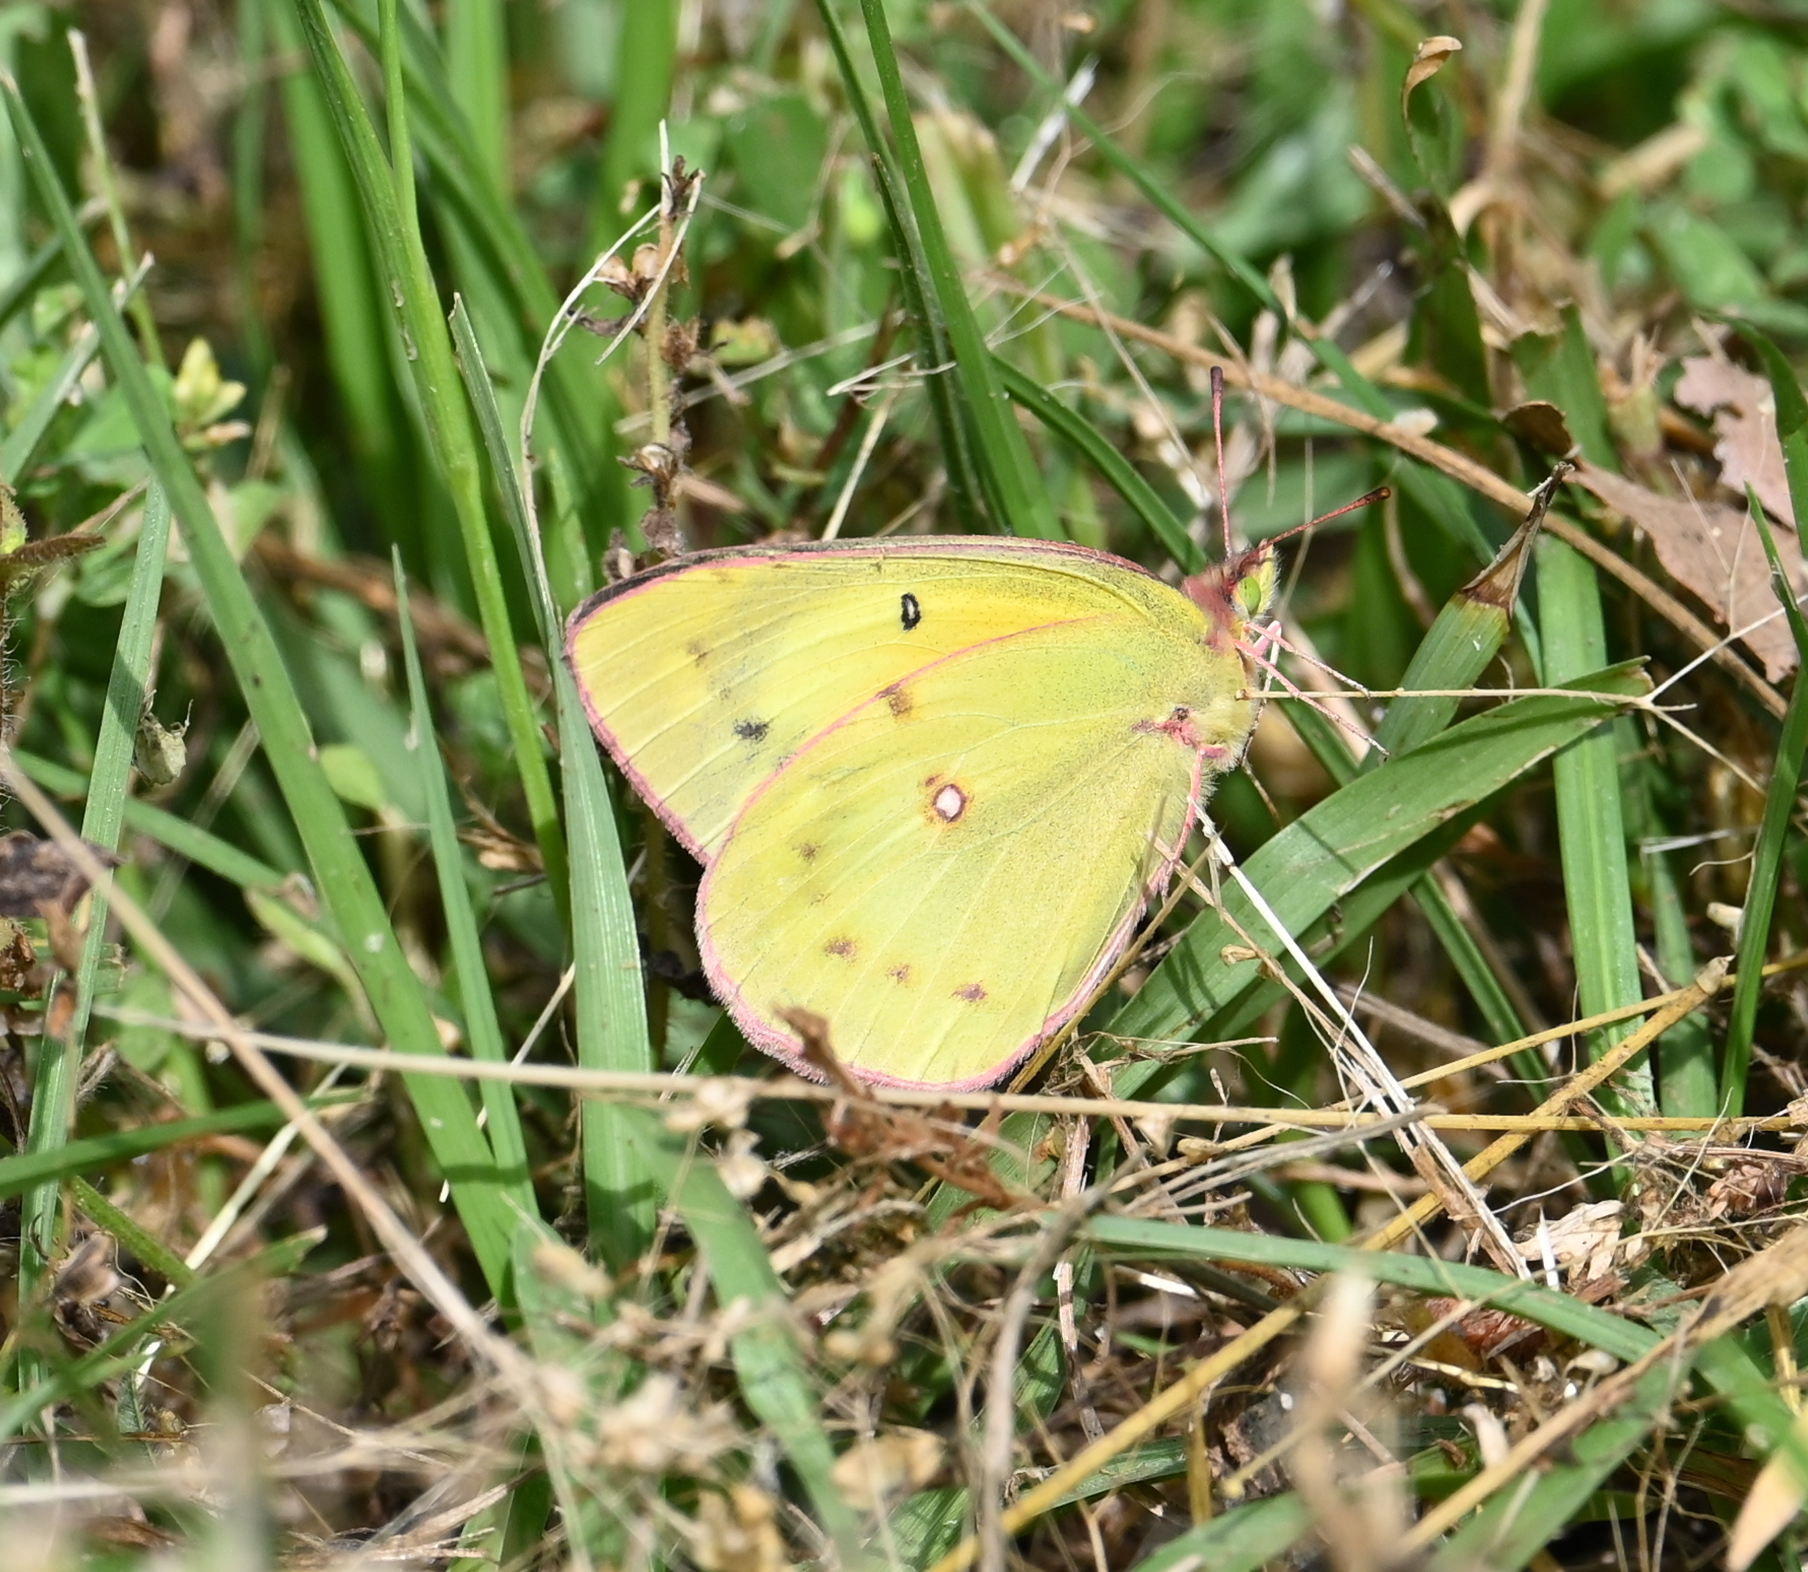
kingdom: Animalia
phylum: Arthropoda
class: Insecta
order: Lepidoptera
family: Pieridae
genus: Colias
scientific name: Colias eurytheme
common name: Alfalfa butterfly
